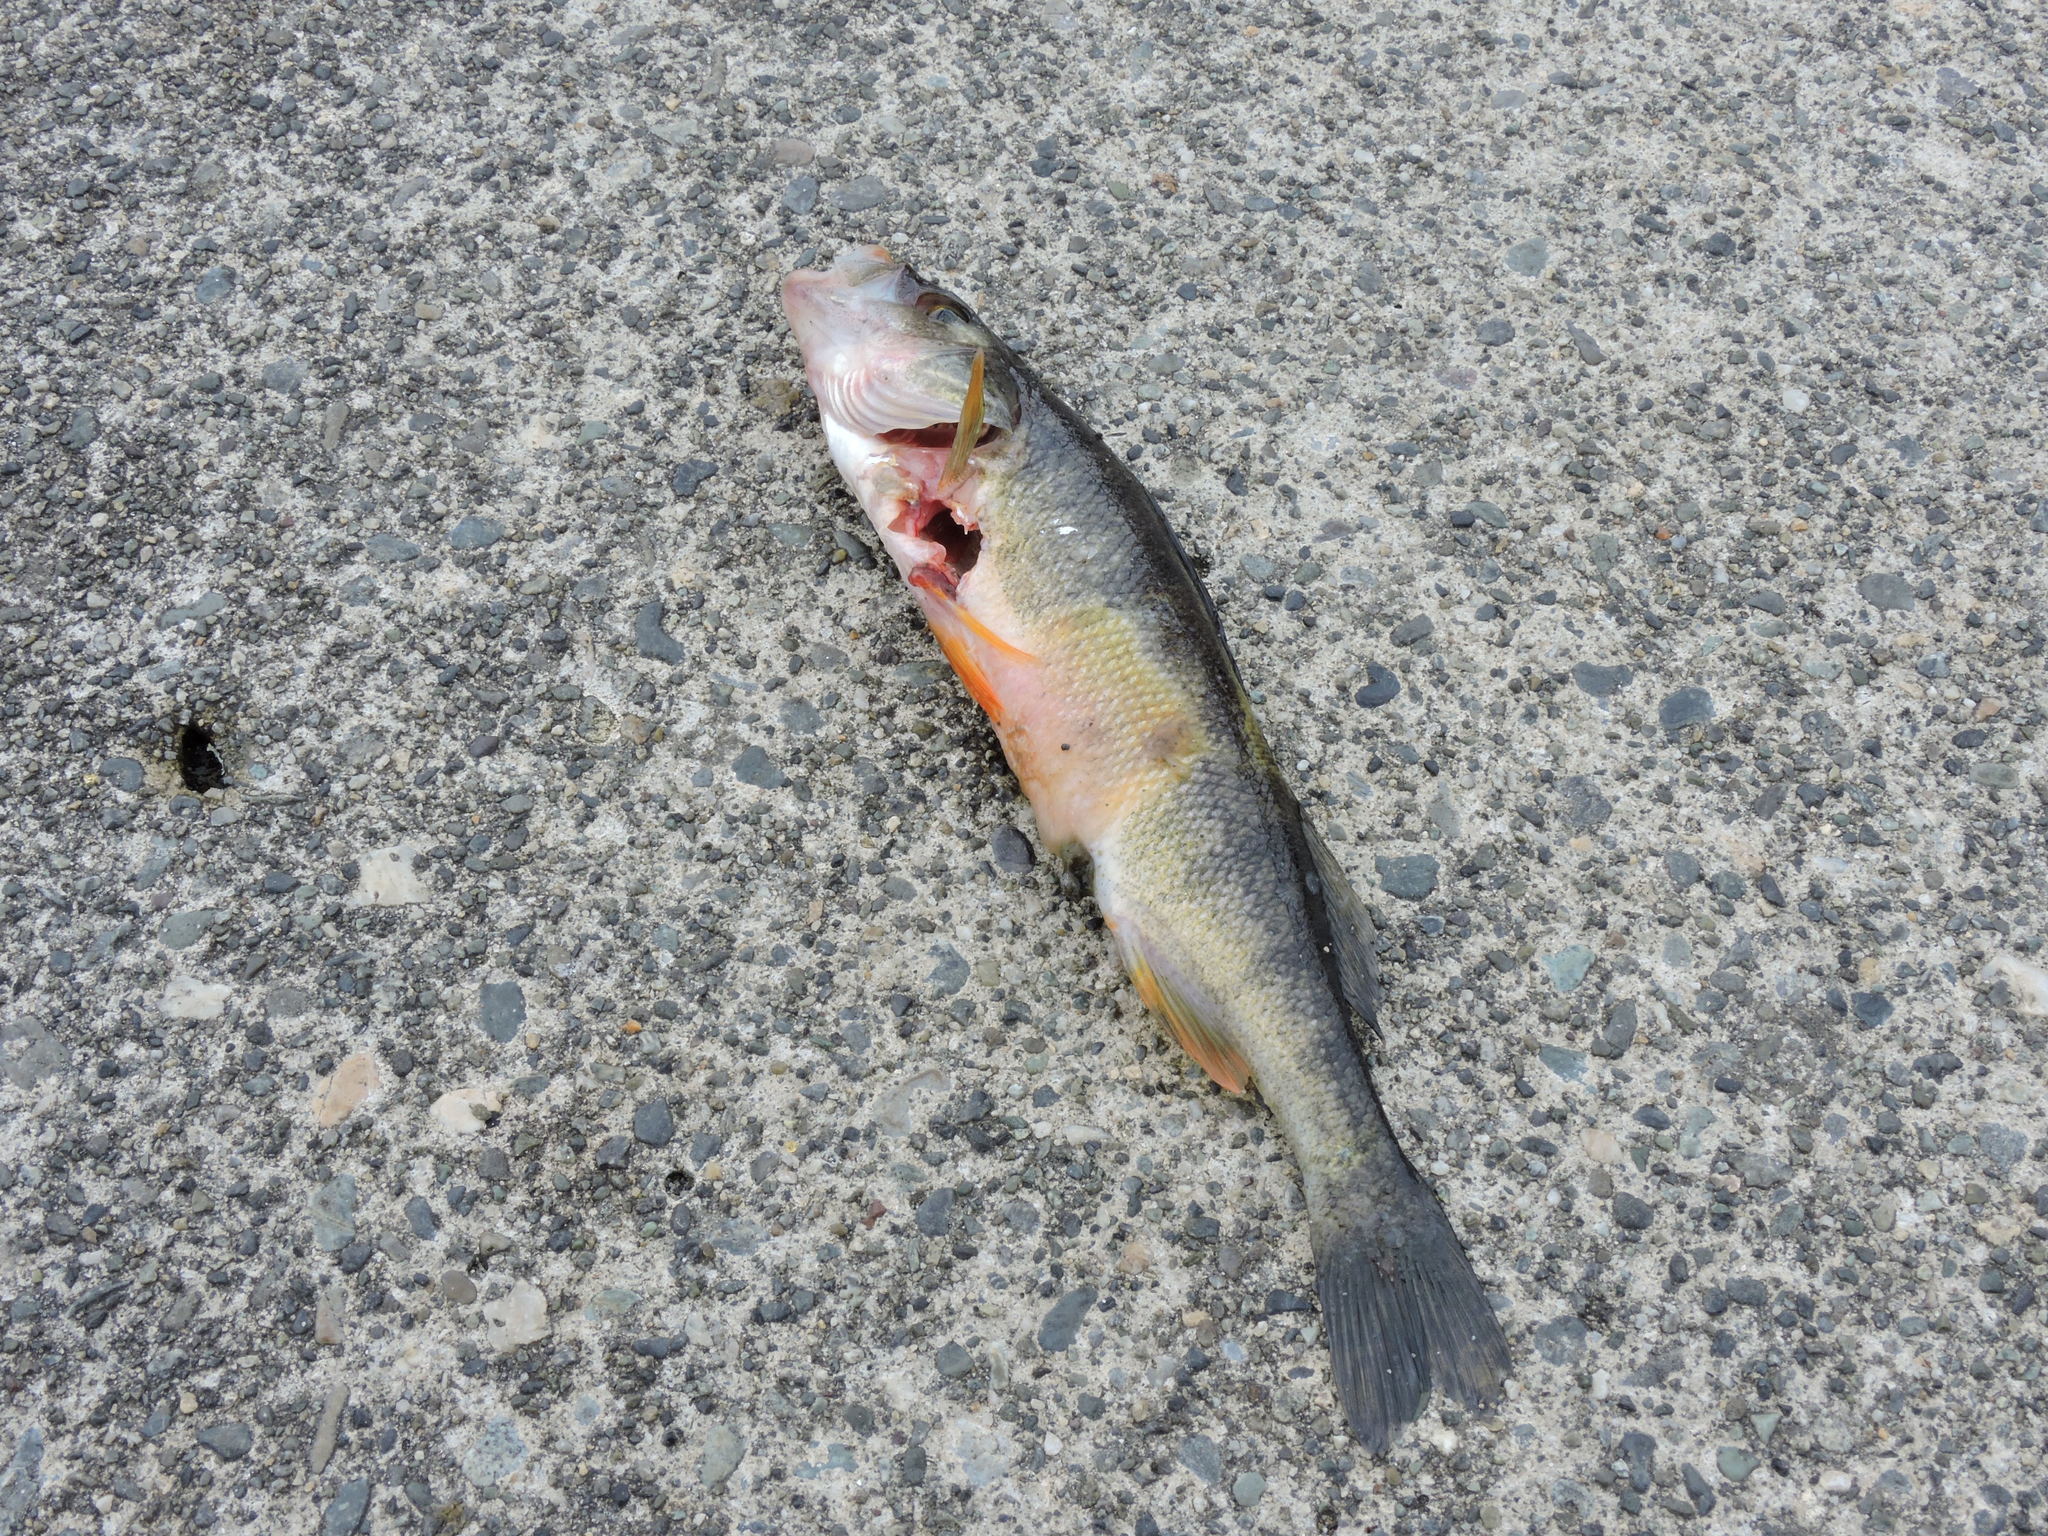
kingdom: Animalia
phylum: Chordata
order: Perciformes
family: Percidae
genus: Perca
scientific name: Perca flavescens
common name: Yellow perch
